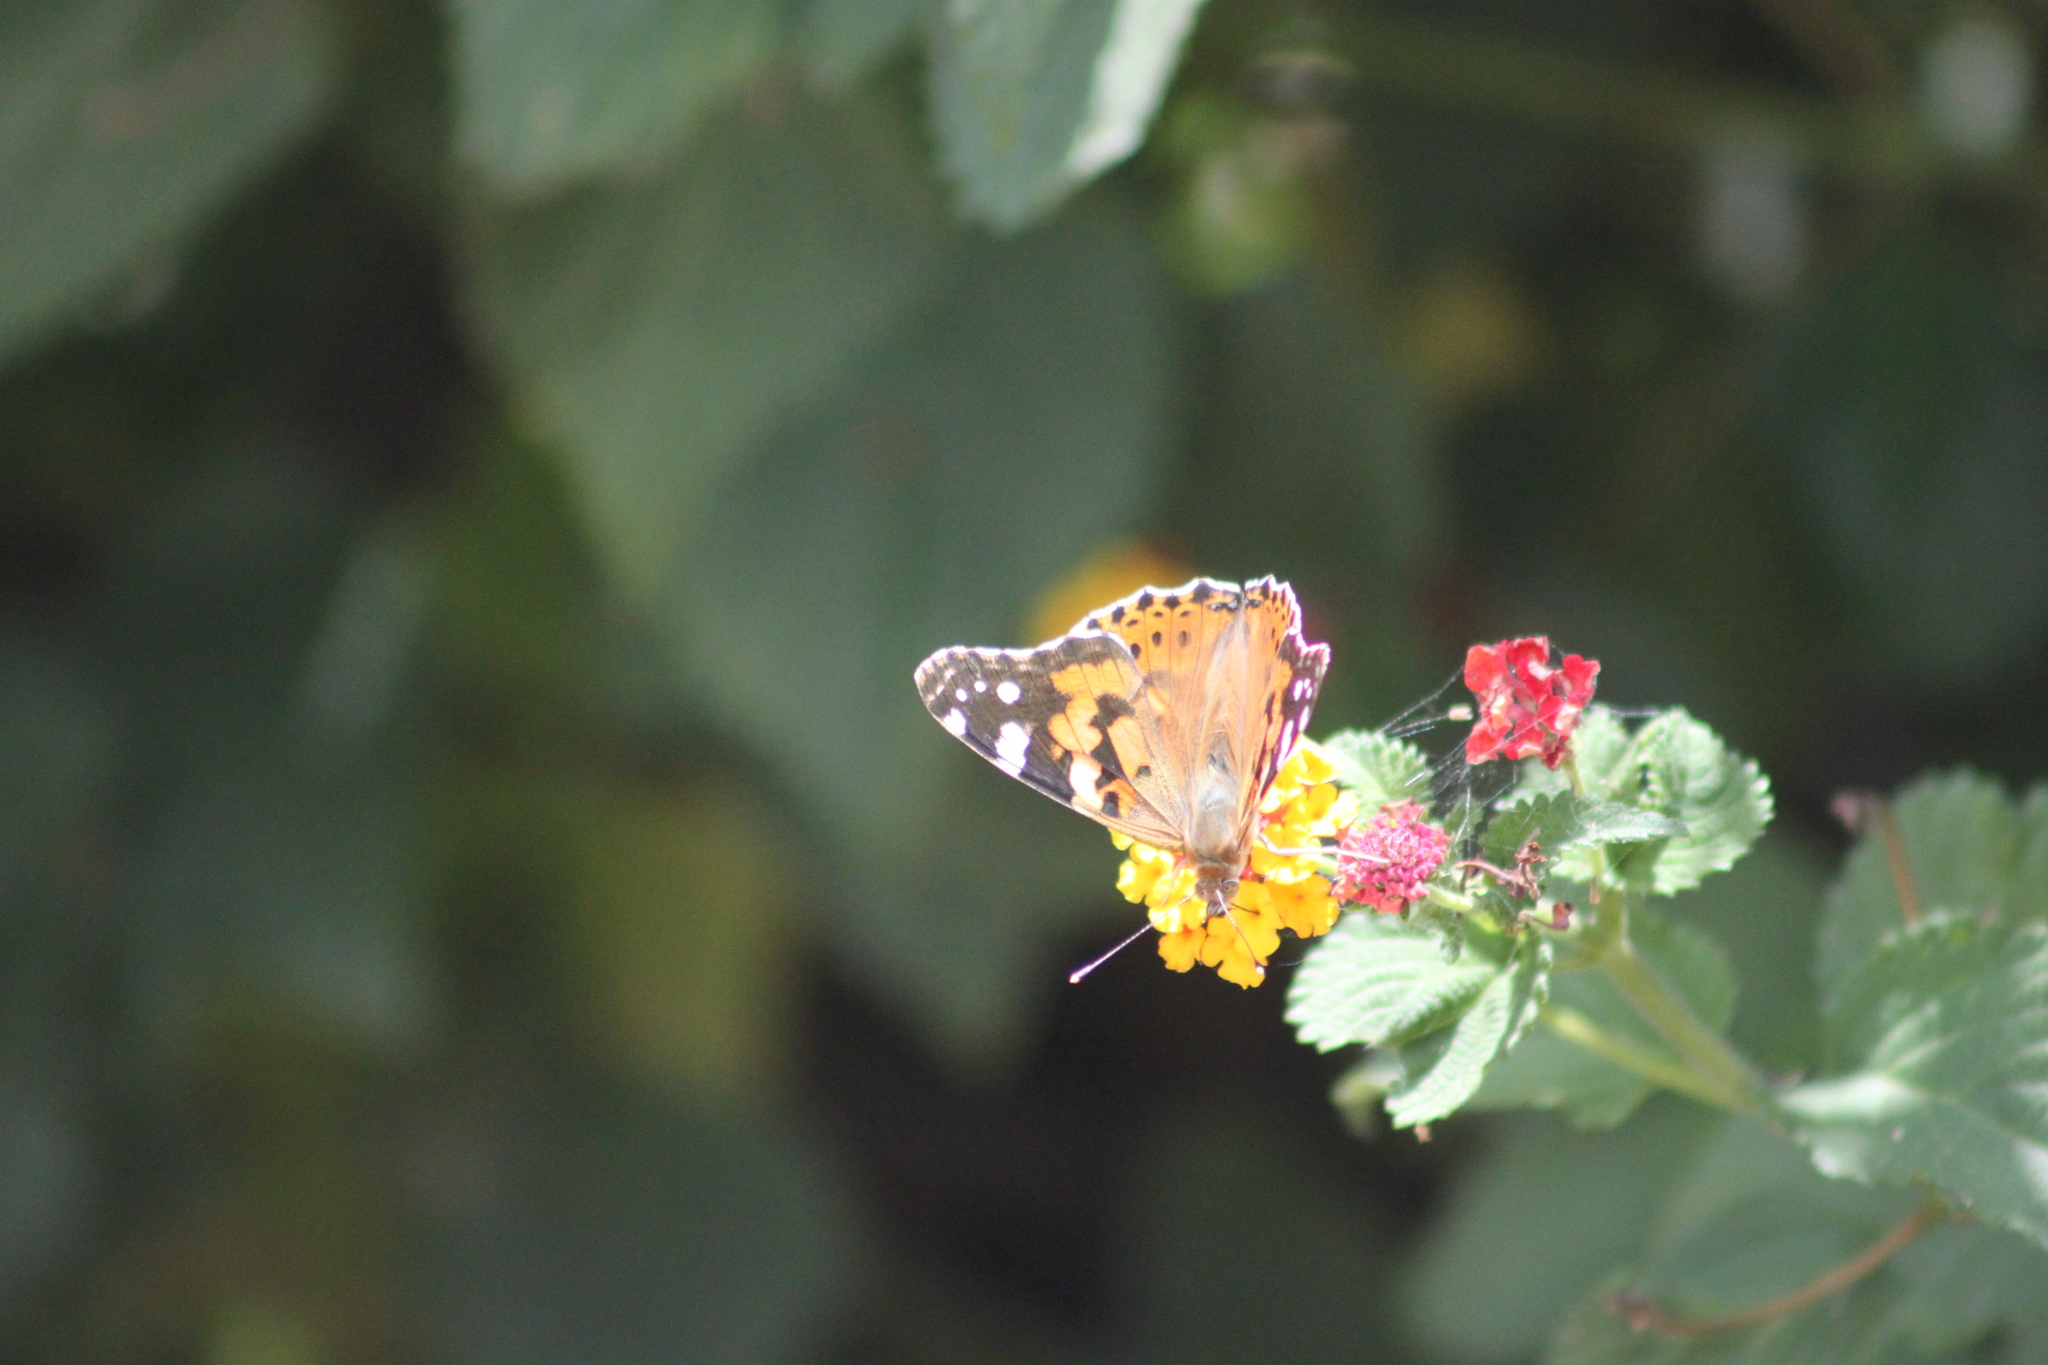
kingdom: Animalia
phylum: Arthropoda
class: Insecta
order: Lepidoptera
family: Nymphalidae
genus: Vanessa
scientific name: Vanessa cardui
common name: Painted lady
